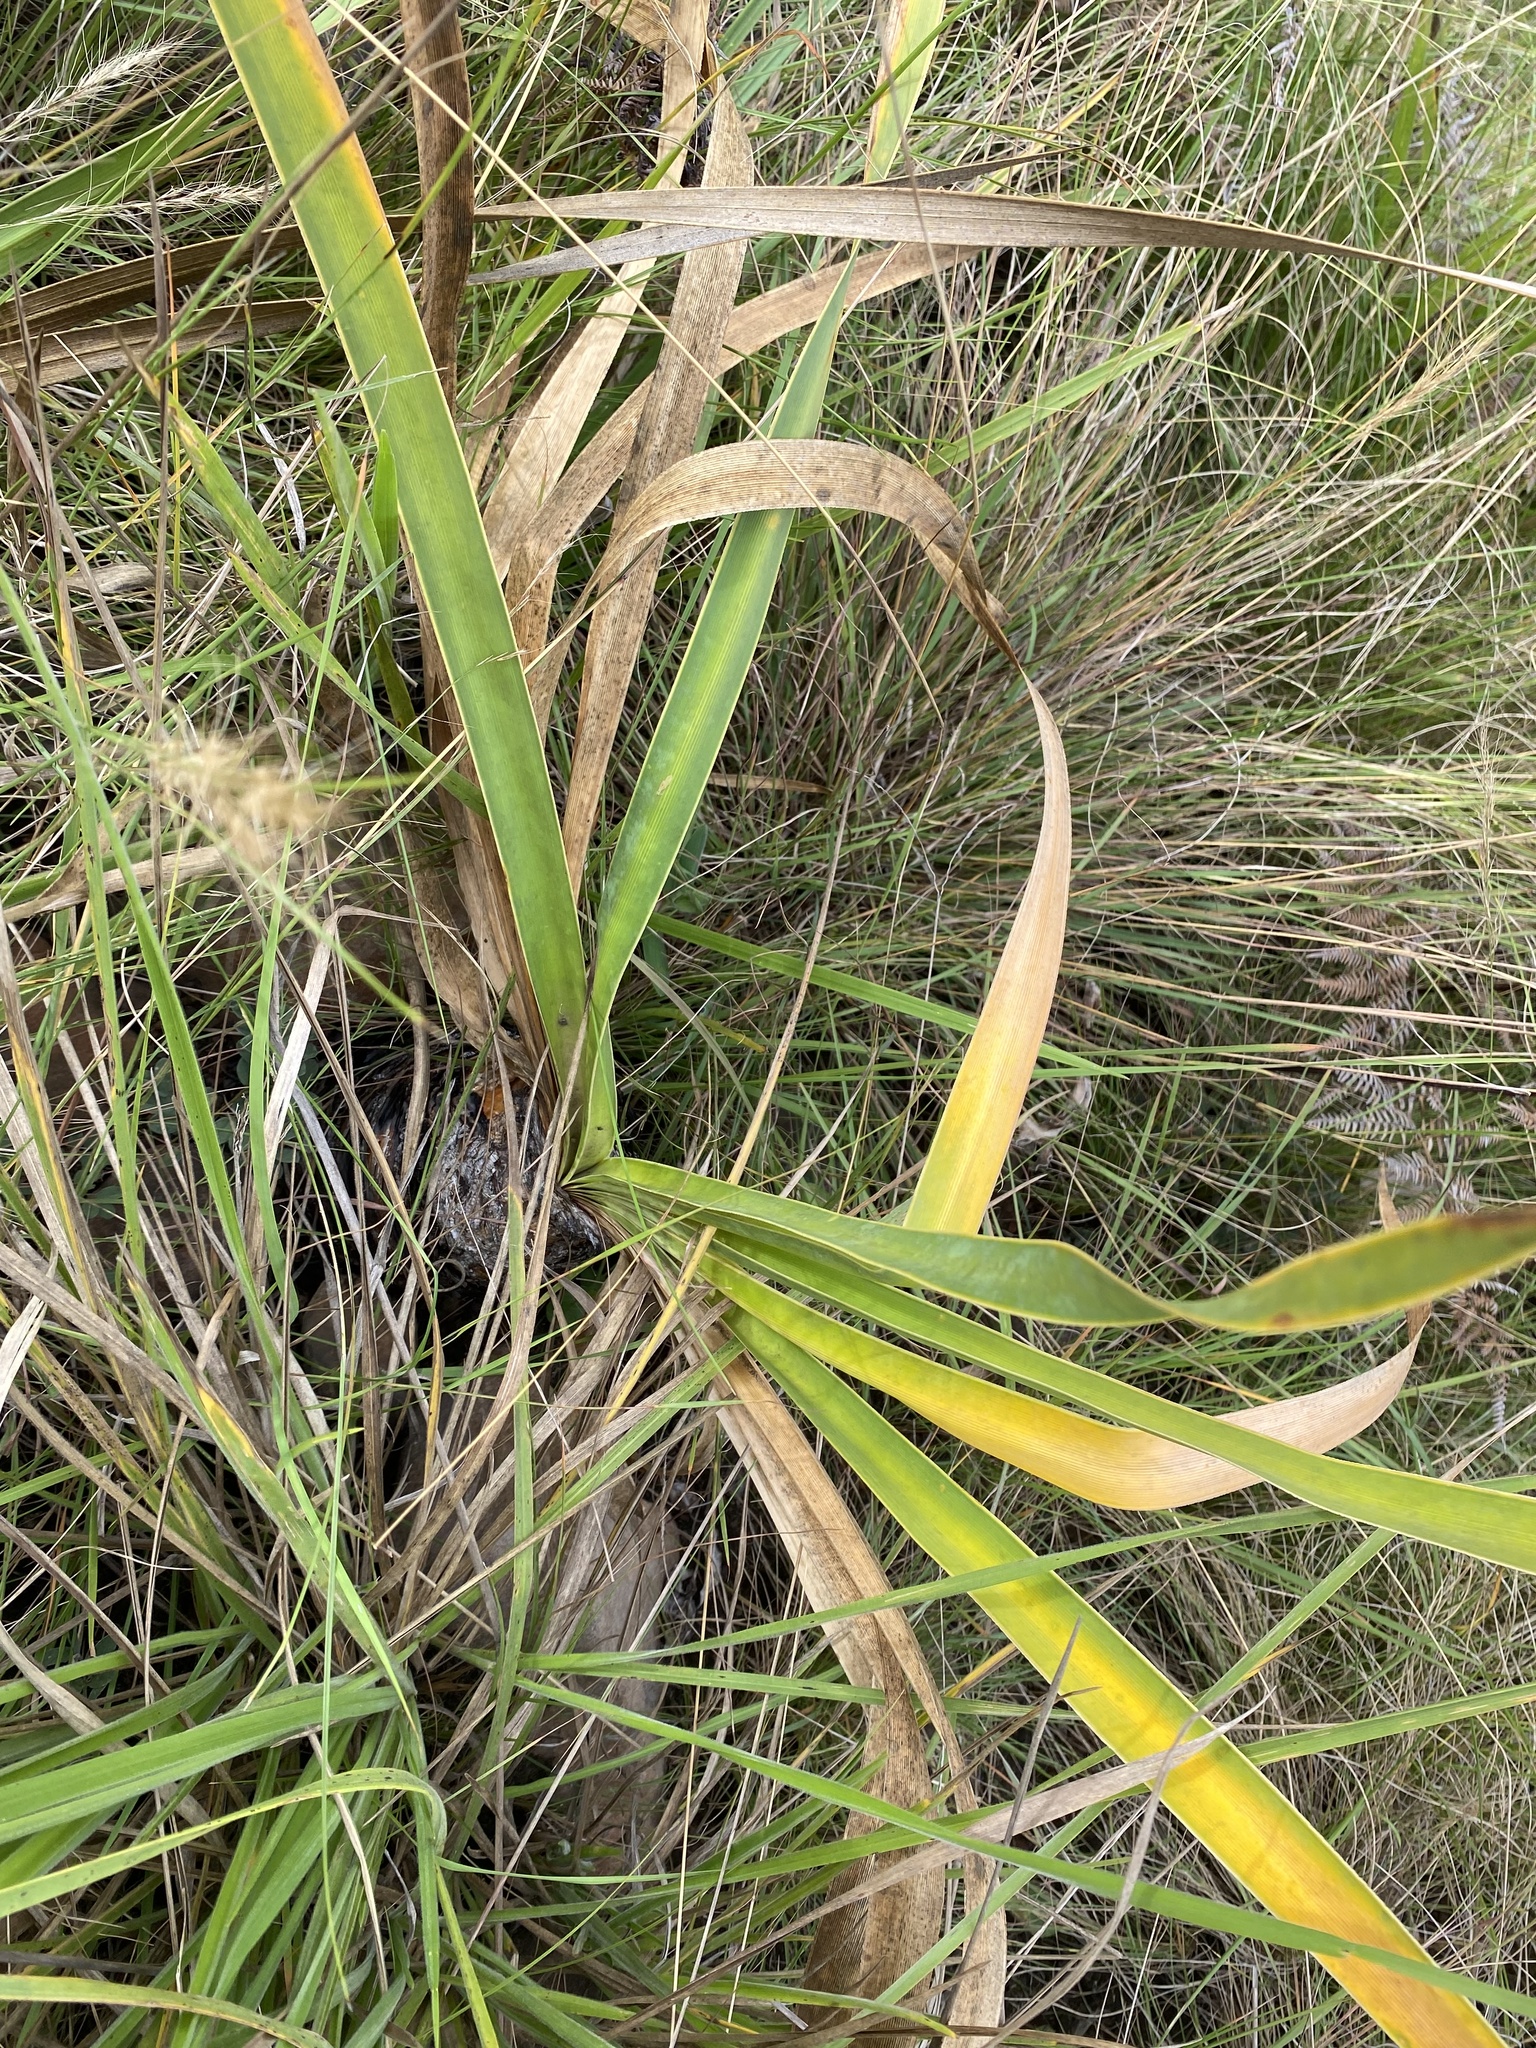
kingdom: Plantae
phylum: Tracheophyta
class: Liliopsida
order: Asparagales
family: Amaryllidaceae
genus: Boophone
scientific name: Boophone disticha
